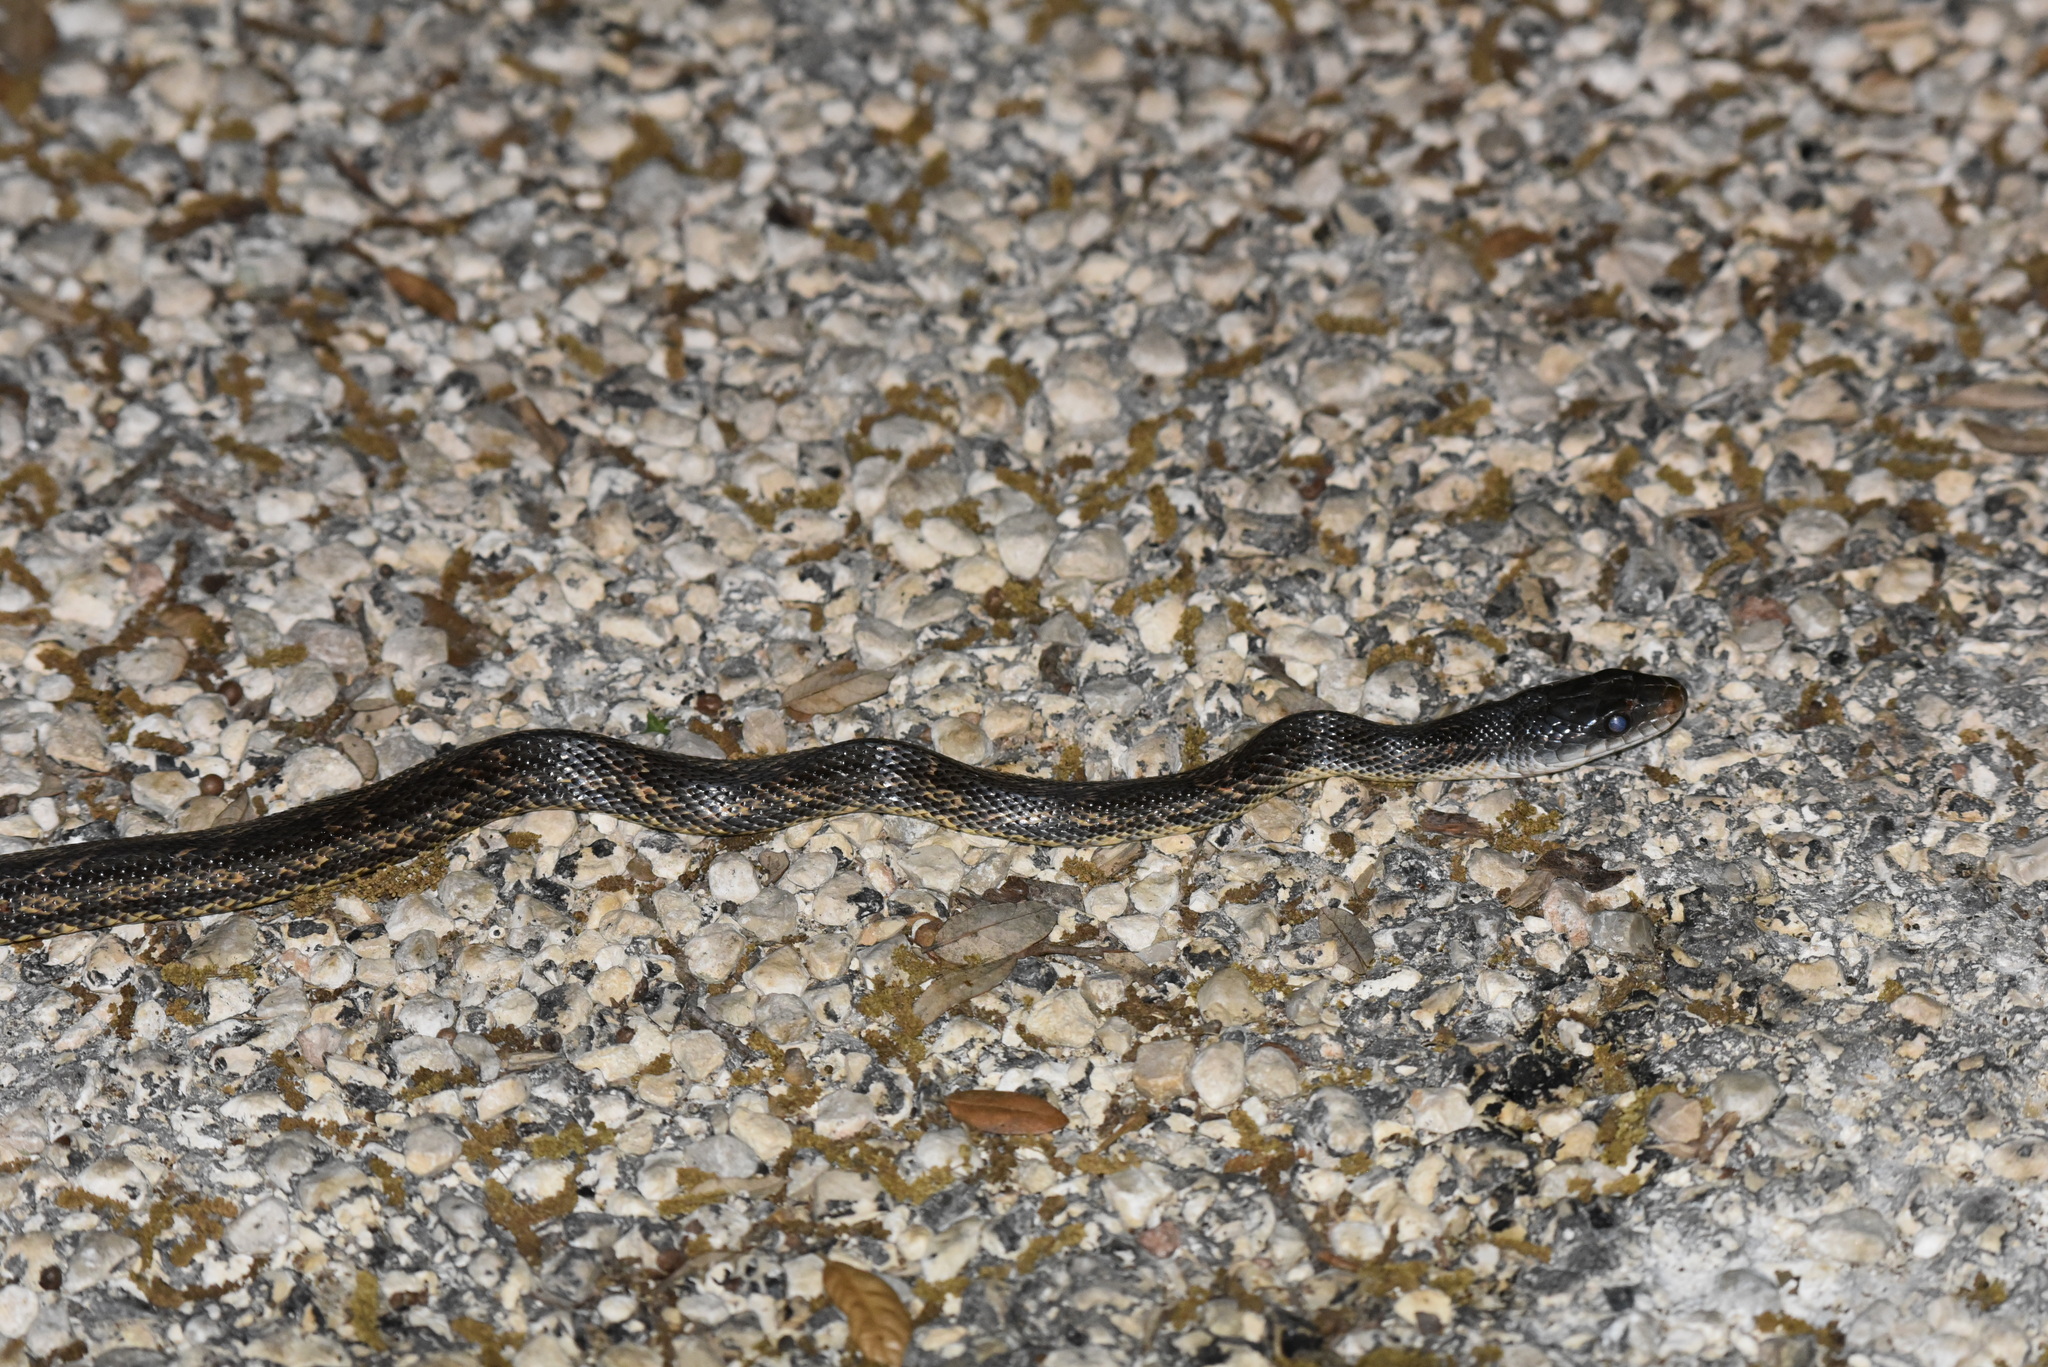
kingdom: Animalia
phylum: Chordata
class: Squamata
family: Colubridae
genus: Pantherophis
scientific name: Pantherophis obsoletus
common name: Black rat snake
